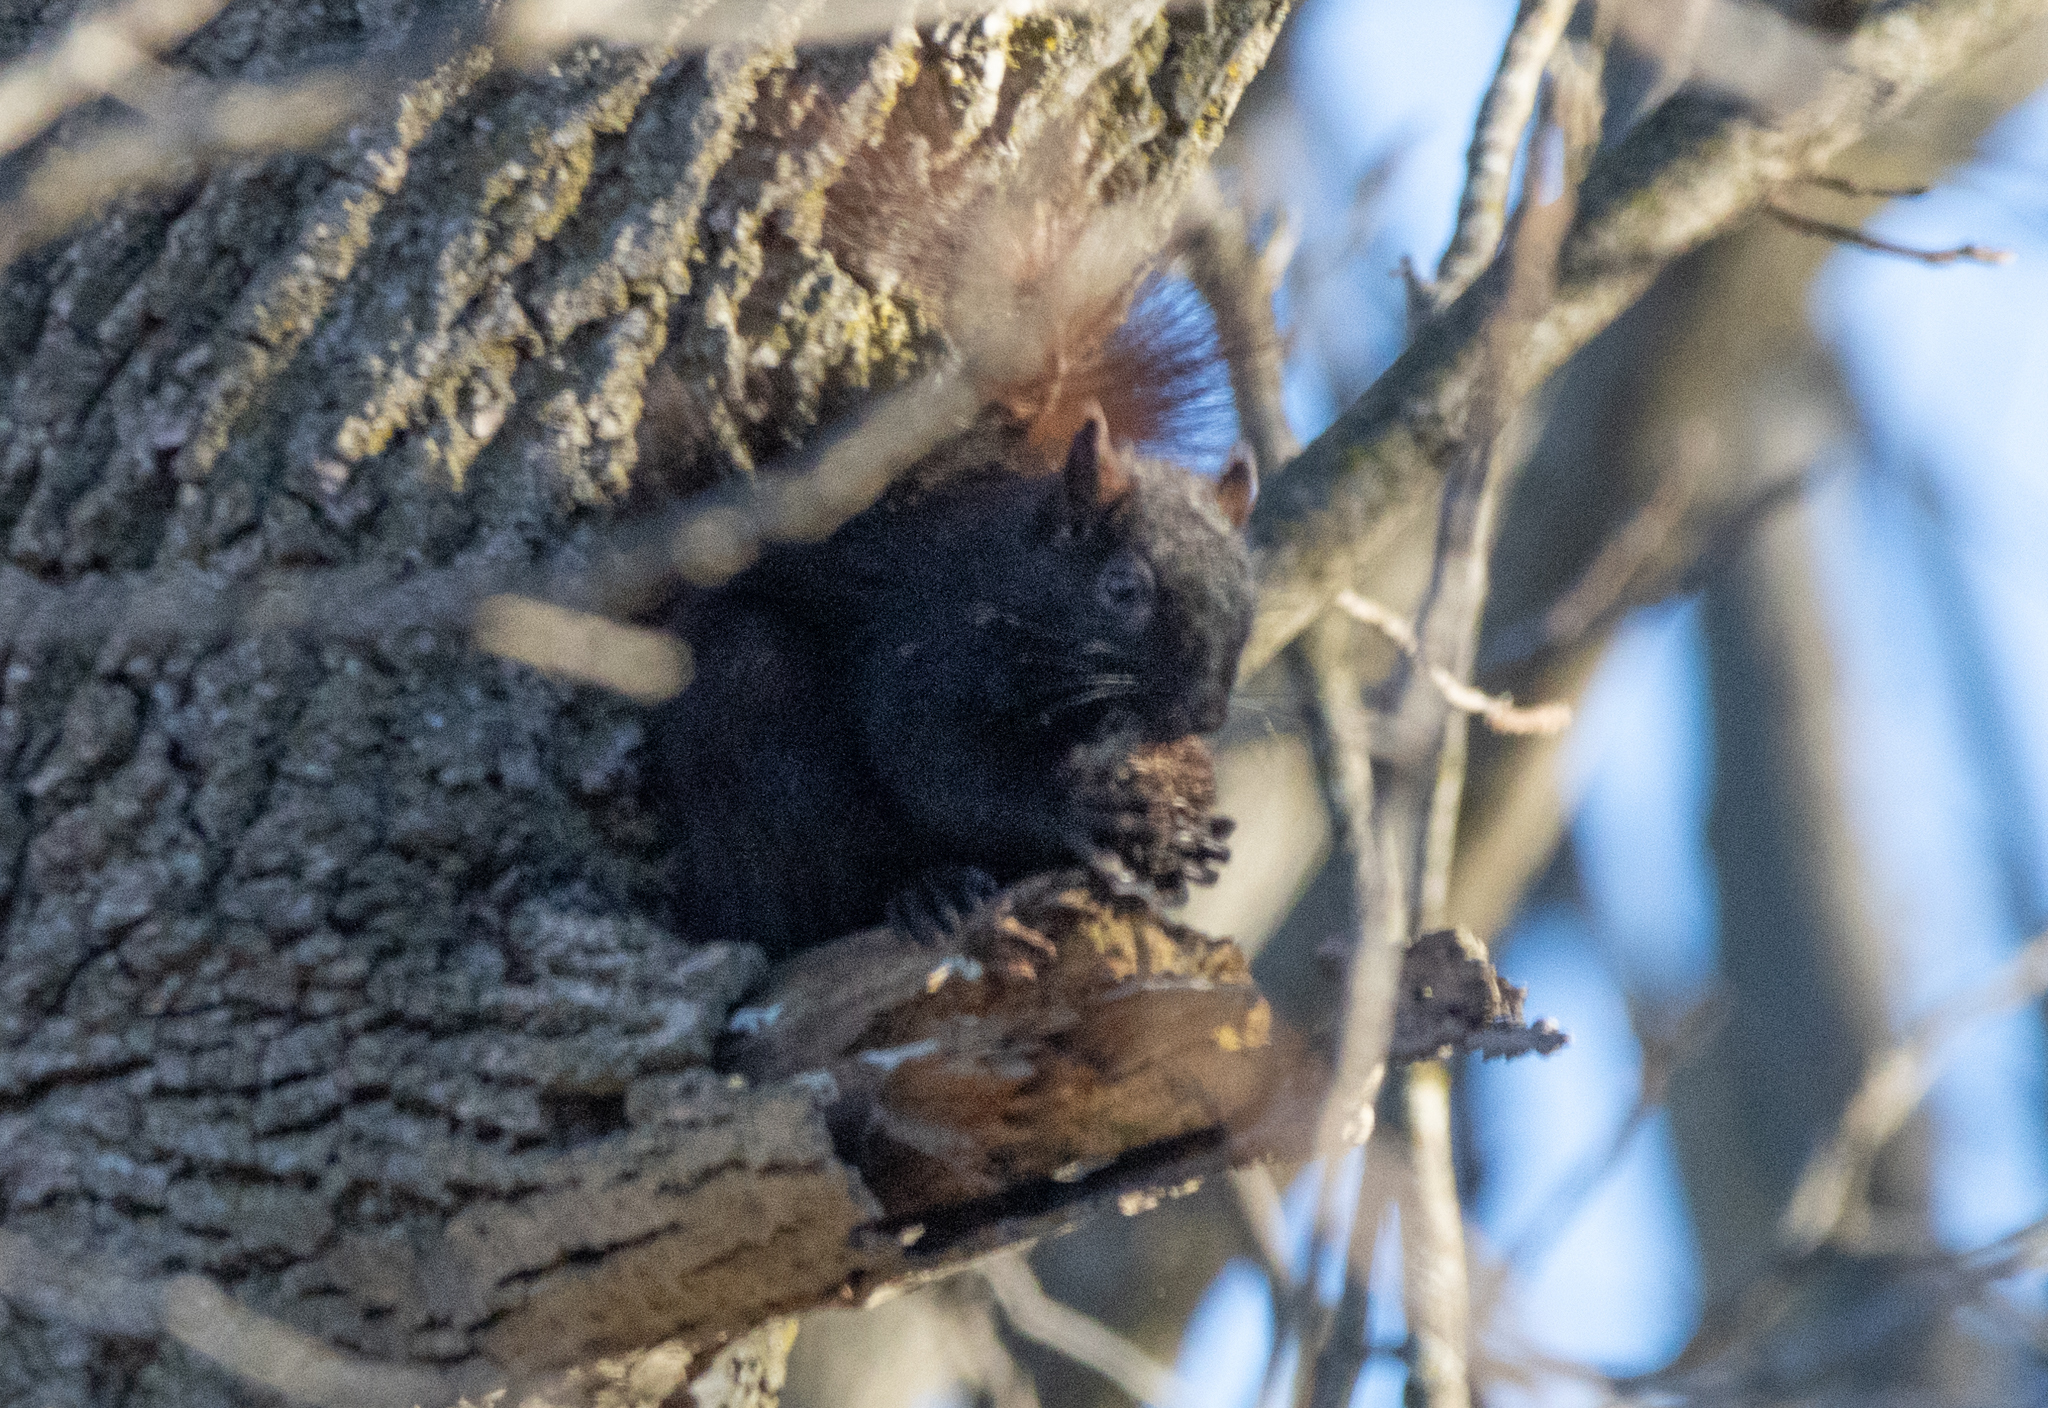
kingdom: Animalia
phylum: Chordata
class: Mammalia
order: Rodentia
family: Sciuridae
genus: Sciurus
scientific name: Sciurus carolinensis
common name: Eastern gray squirrel
